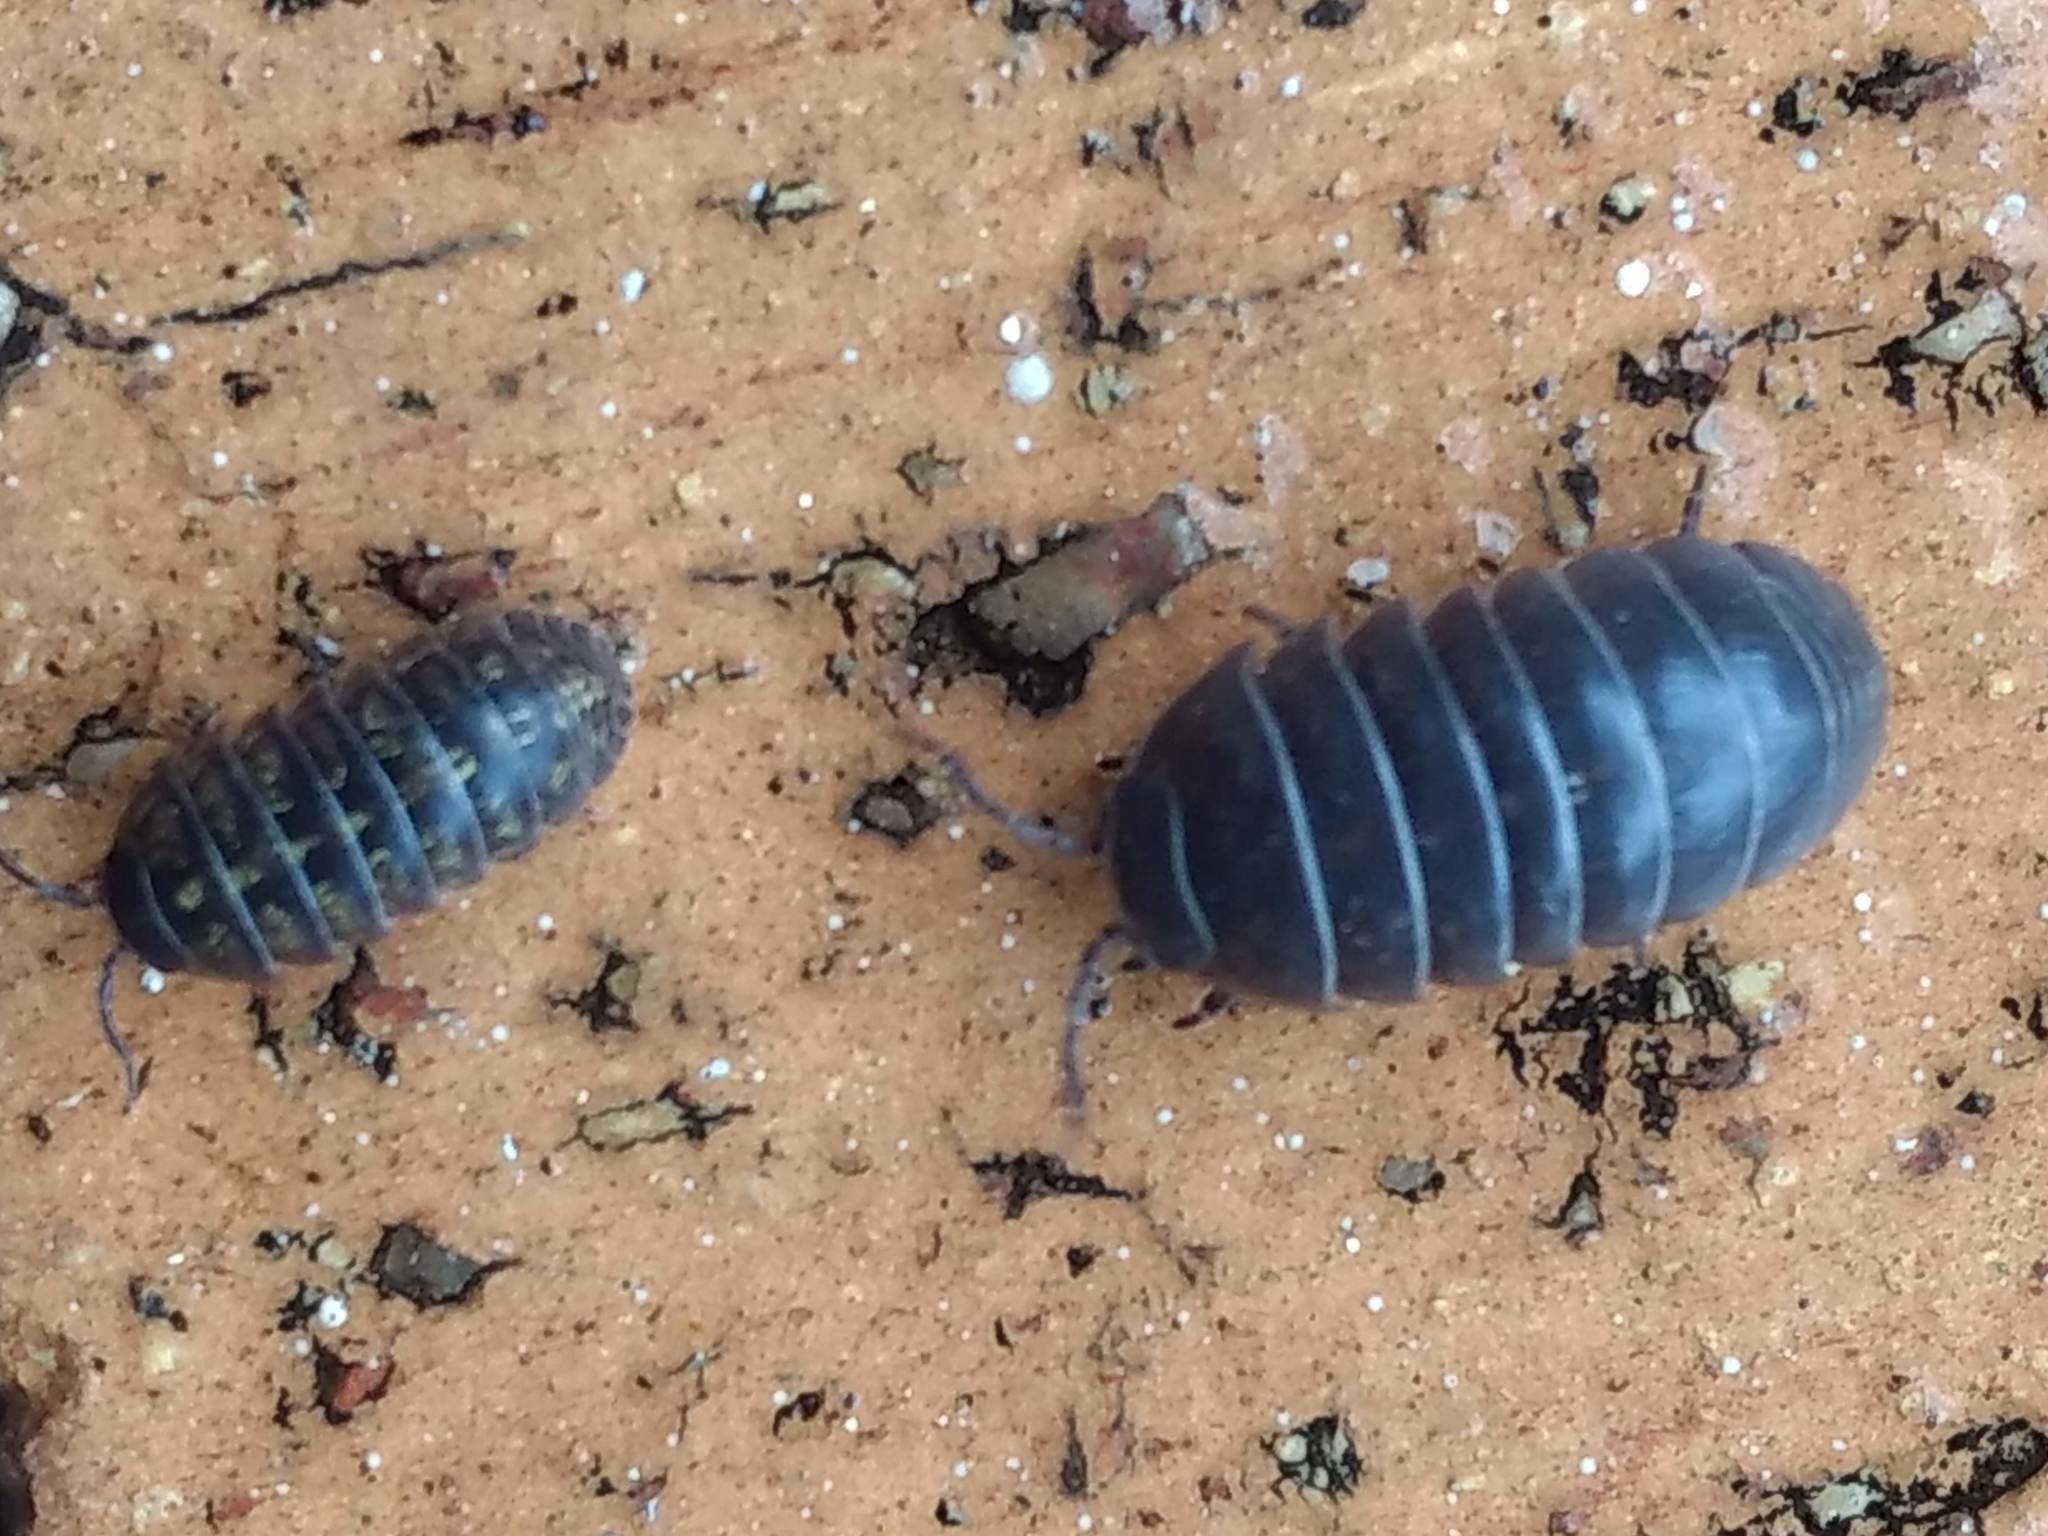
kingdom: Animalia
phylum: Arthropoda
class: Malacostraca
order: Isopoda
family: Armadillidiidae
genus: Armadillidium
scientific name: Armadillidium vulgare
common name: Common pill woodlouse
